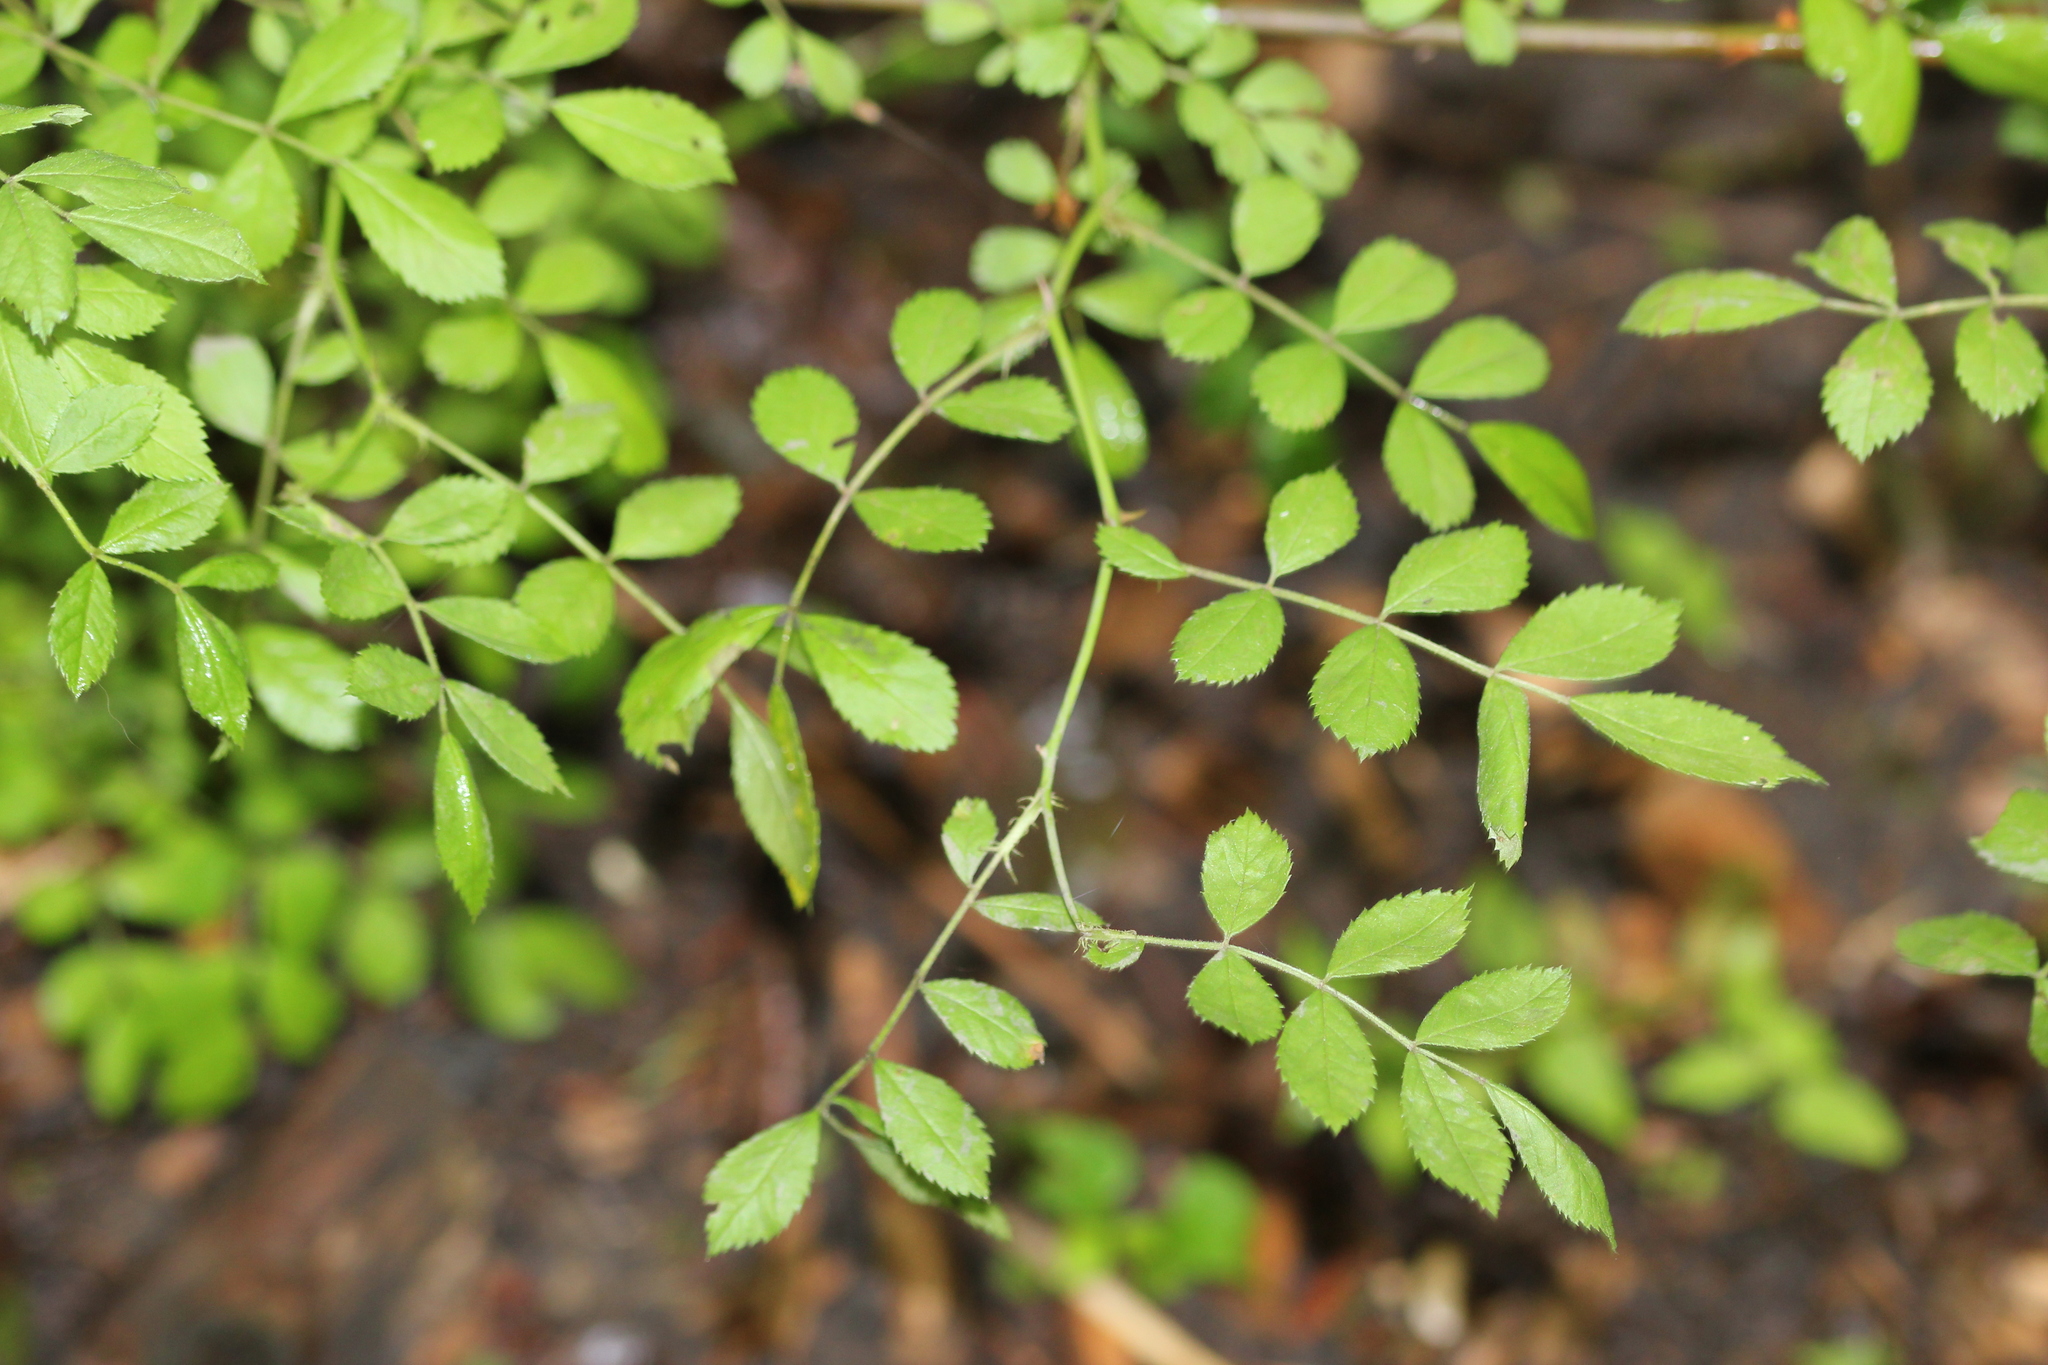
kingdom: Plantae
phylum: Tracheophyta
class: Magnoliopsida
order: Rosales
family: Rosaceae
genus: Rosa
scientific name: Rosa multiflora
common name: Multiflora rose
